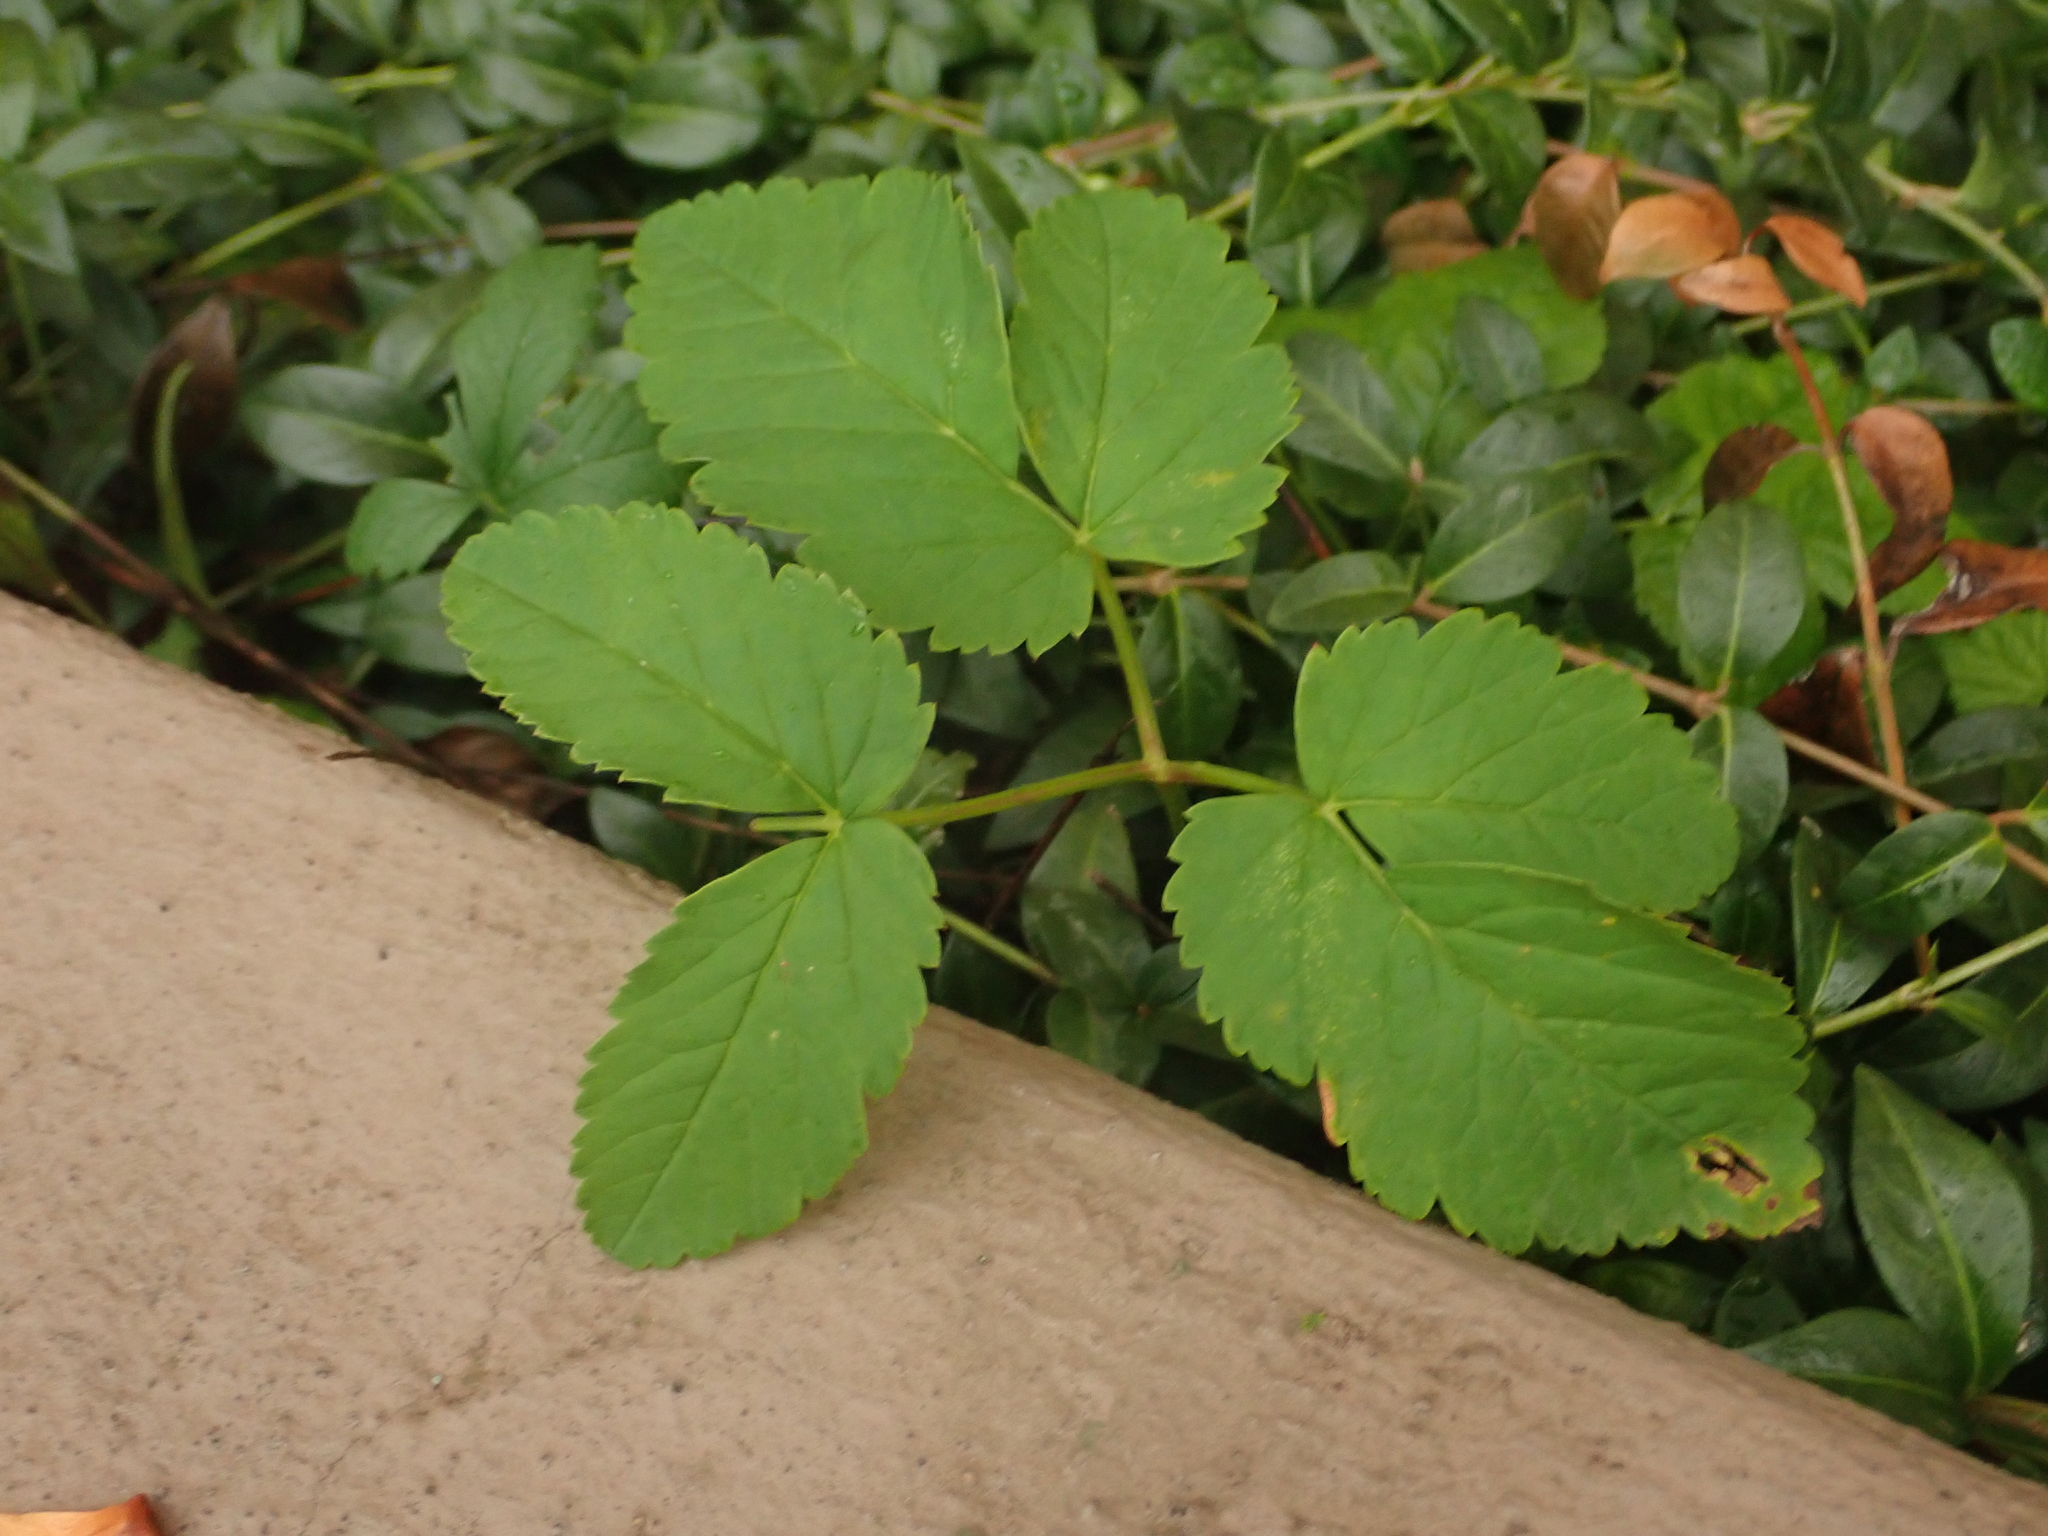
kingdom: Plantae
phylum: Tracheophyta
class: Magnoliopsida
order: Apiales
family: Apiaceae
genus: Aegopodium
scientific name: Aegopodium podagraria
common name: Ground-elder
